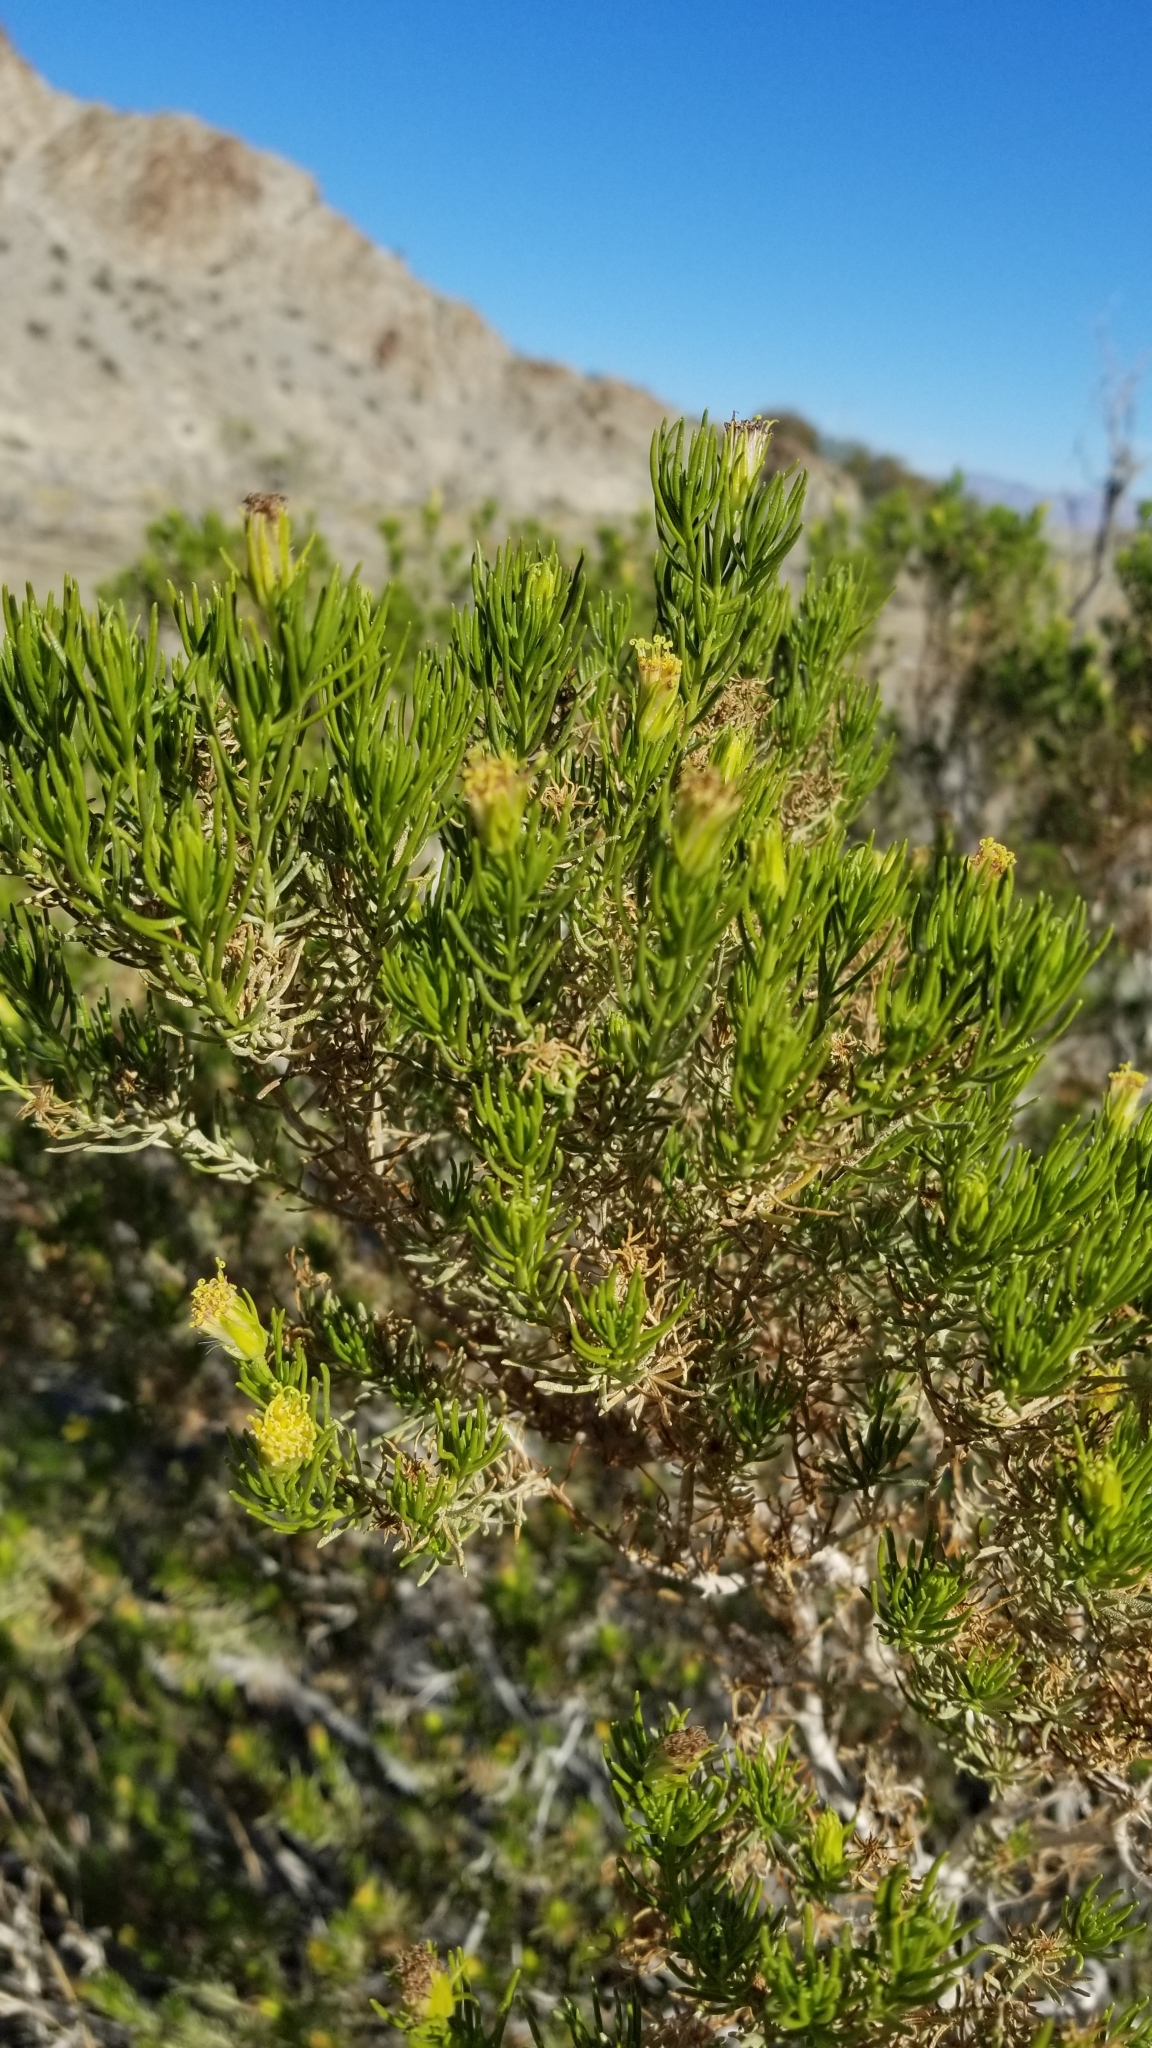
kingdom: Plantae
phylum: Tracheophyta
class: Magnoliopsida
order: Asterales
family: Asteraceae
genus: Peucephyllum
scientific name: Peucephyllum schottii
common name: Pygmy-cedar
